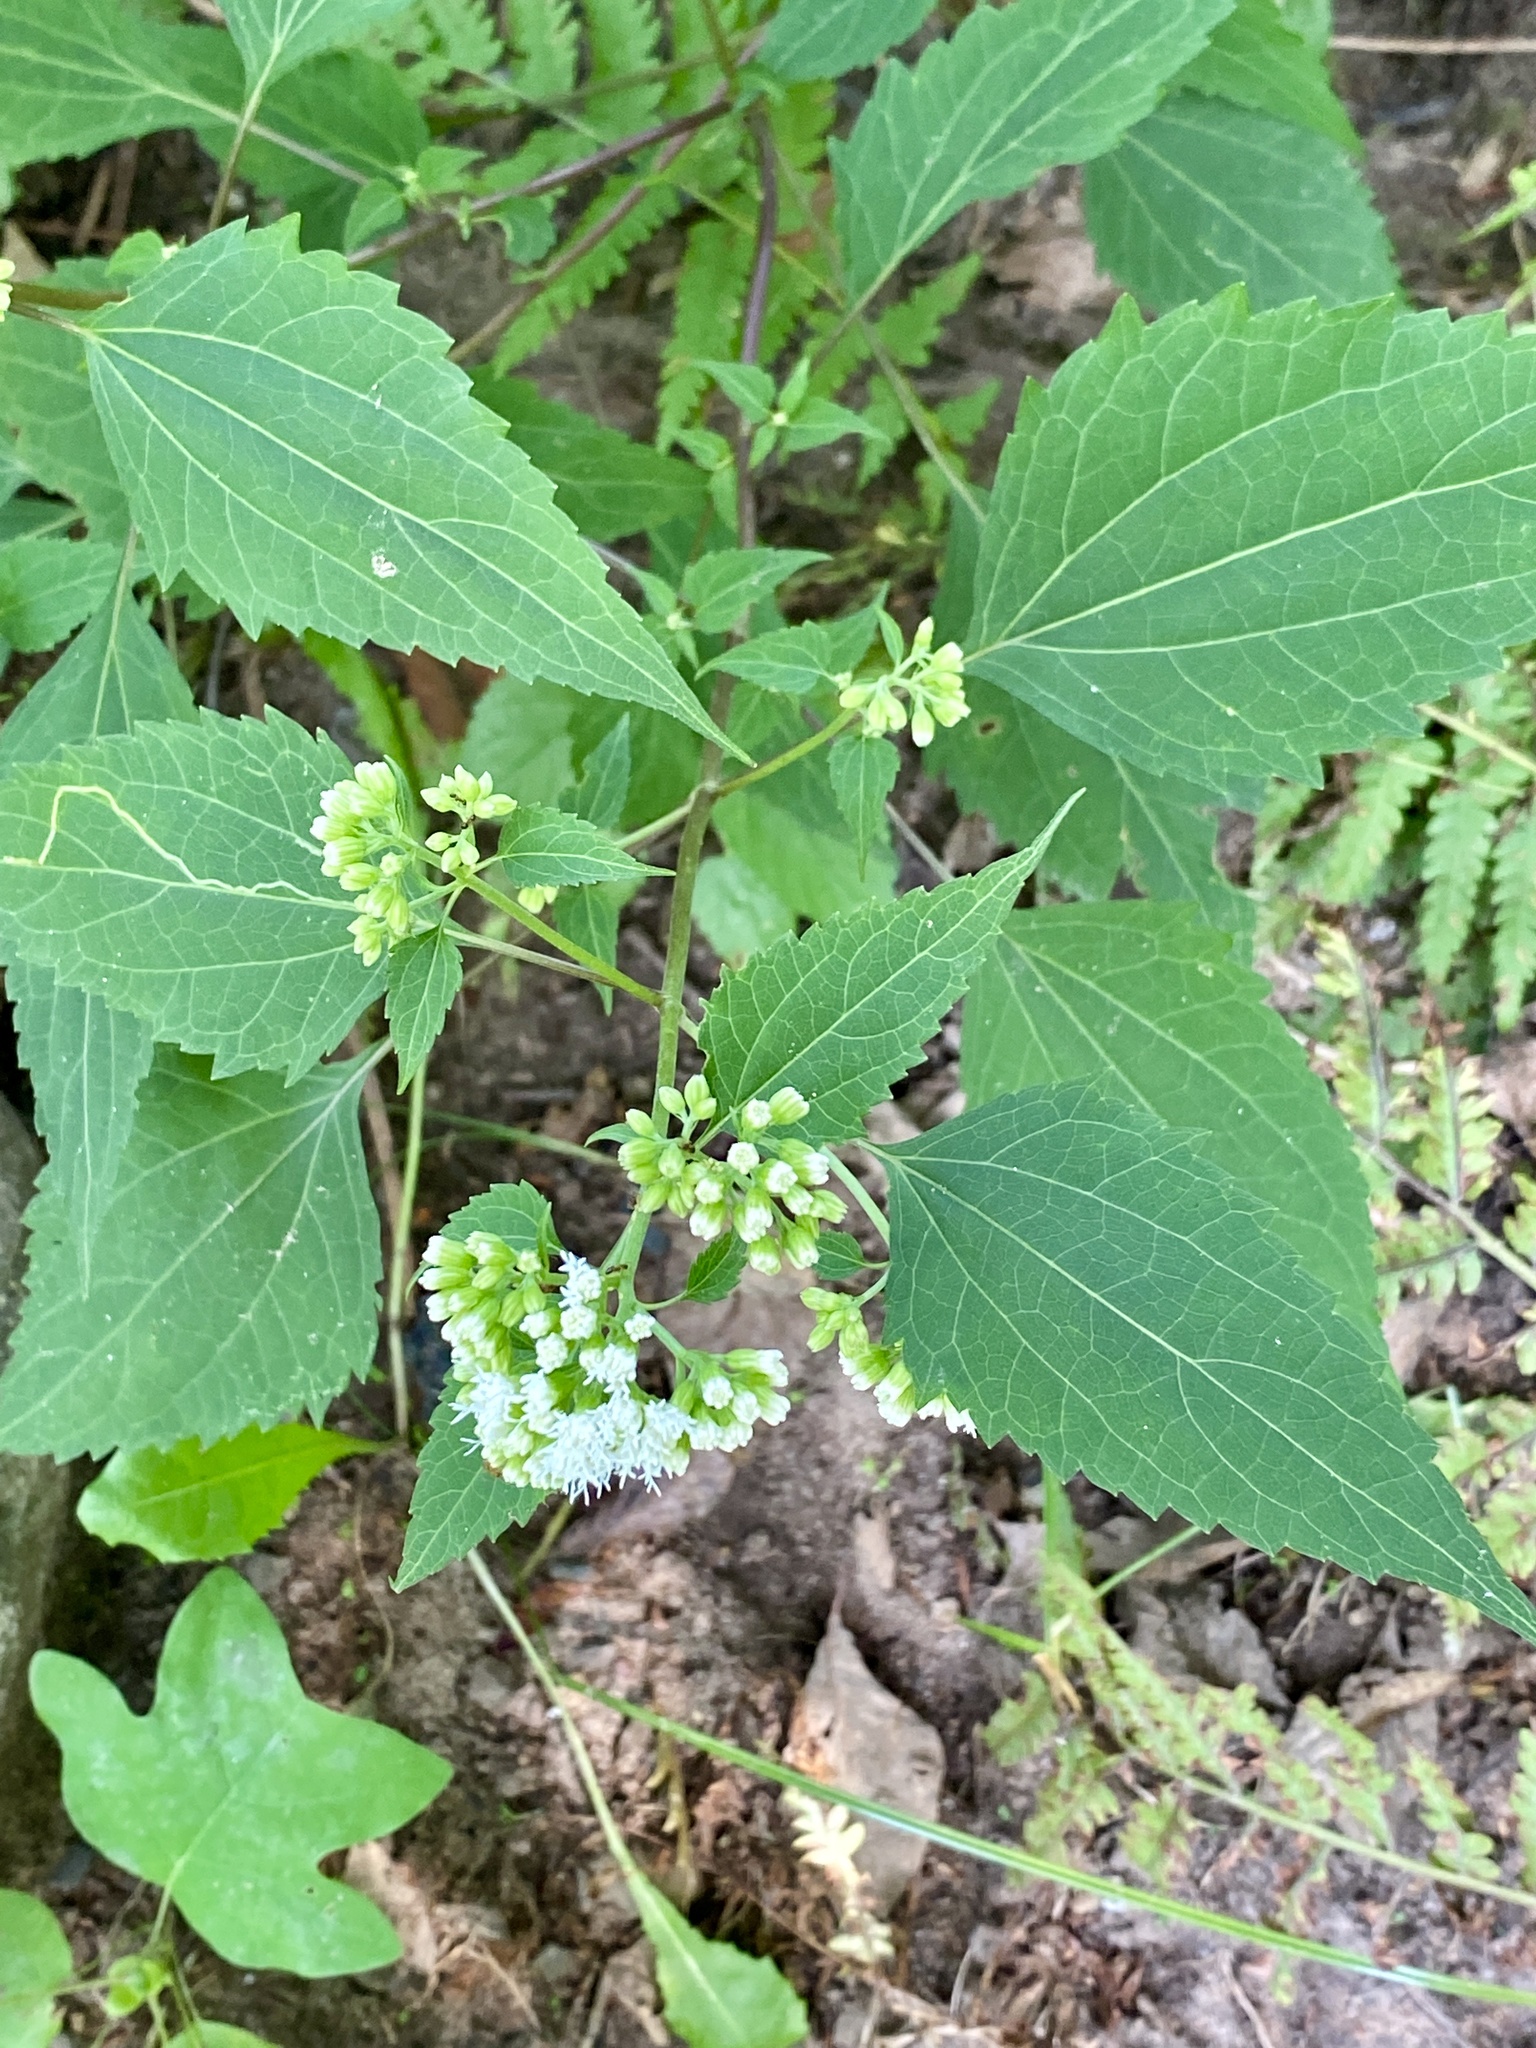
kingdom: Plantae
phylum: Tracheophyta
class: Magnoliopsida
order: Asterales
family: Asteraceae
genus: Ageratina
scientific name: Ageratina altissima
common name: White snakeroot
